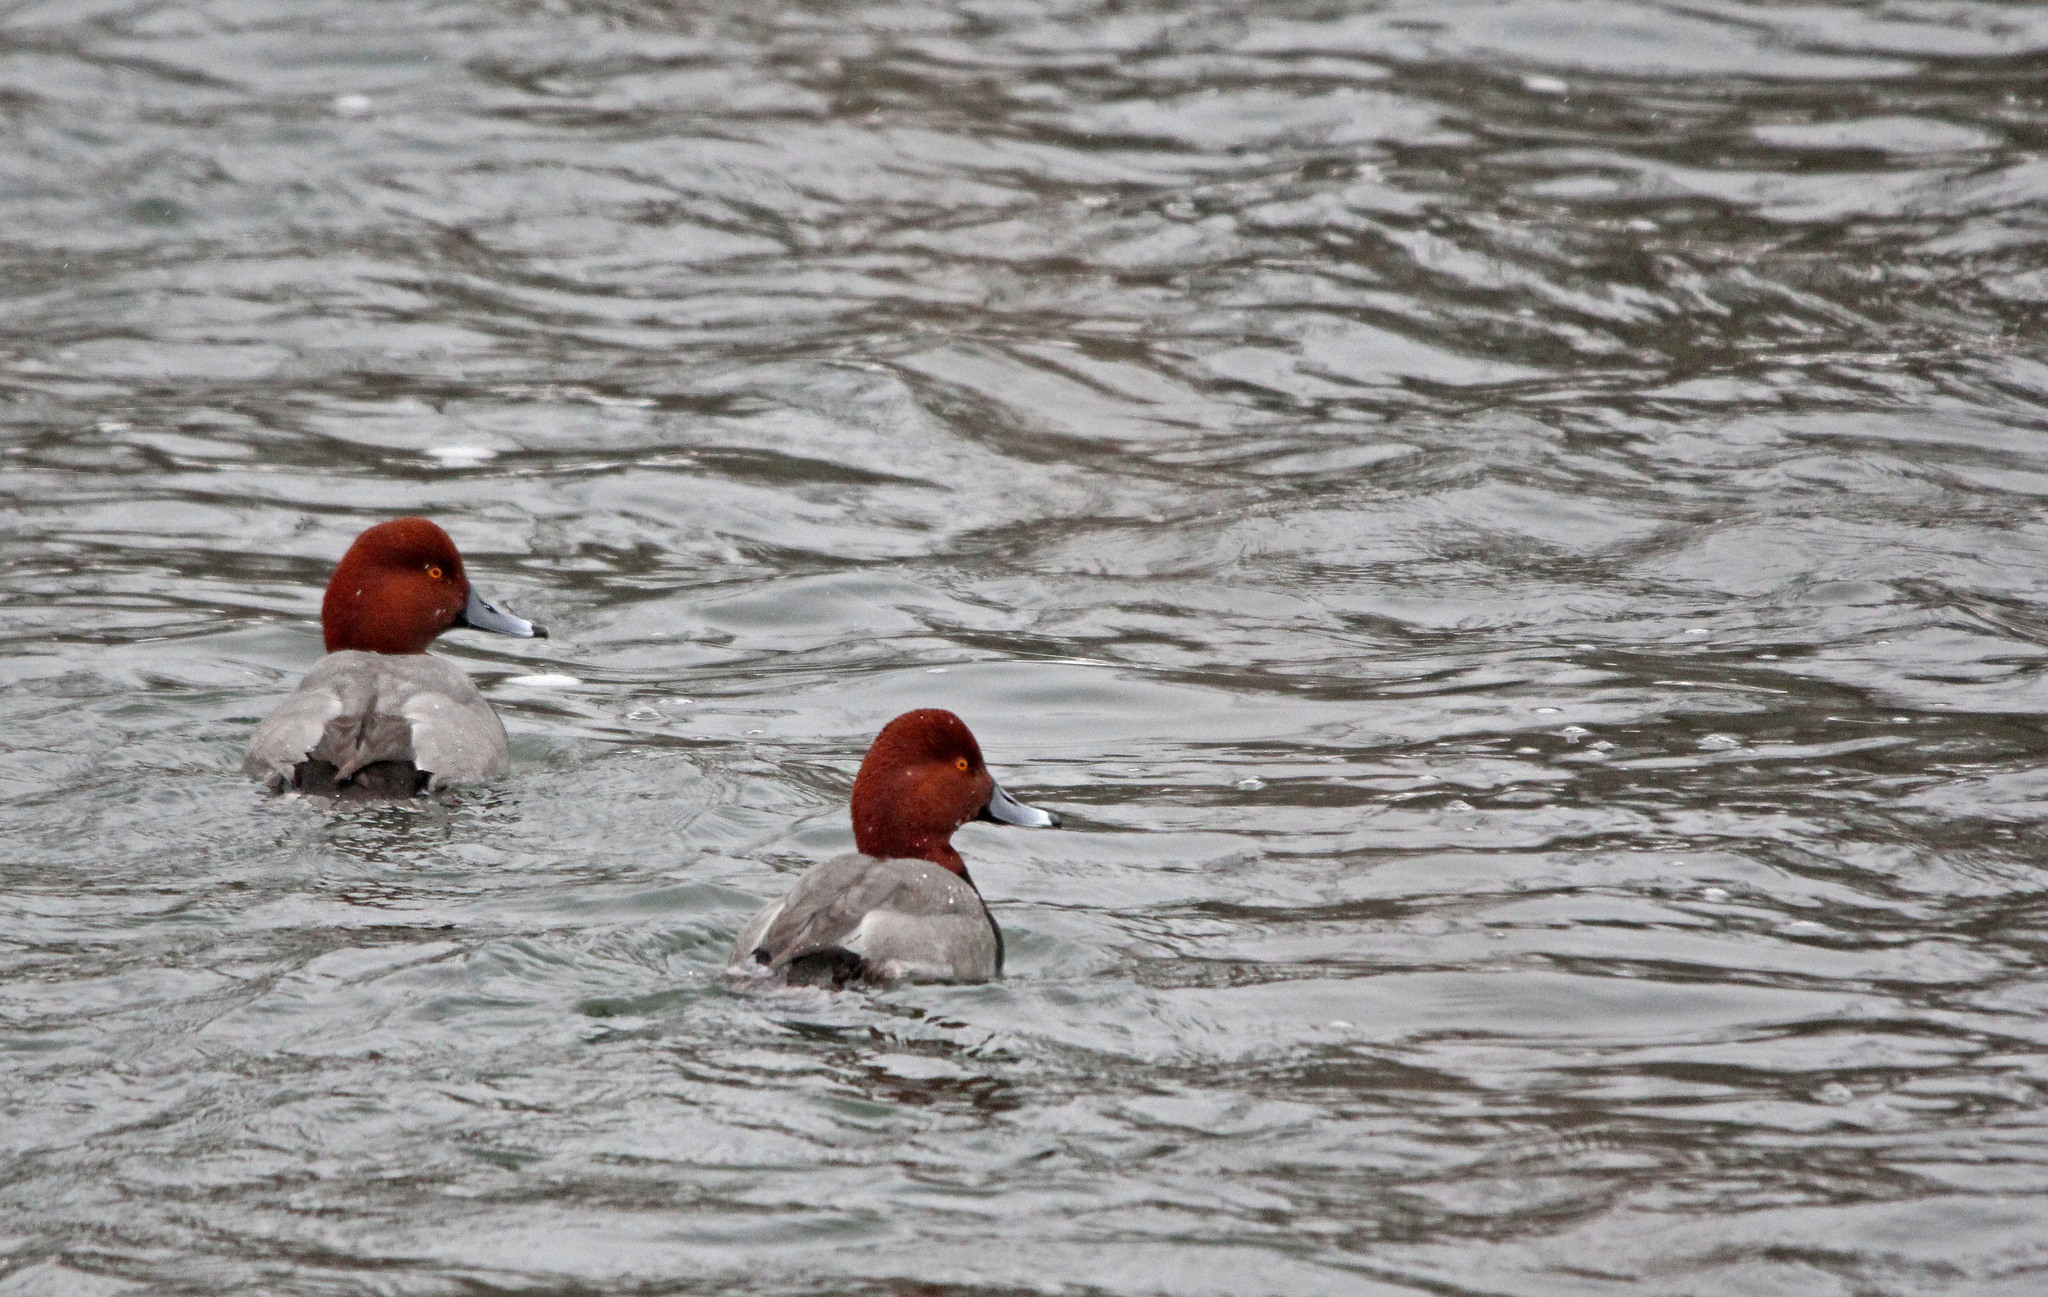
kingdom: Animalia
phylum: Chordata
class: Aves
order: Anseriformes
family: Anatidae
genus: Aythya
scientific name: Aythya americana
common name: Redhead
